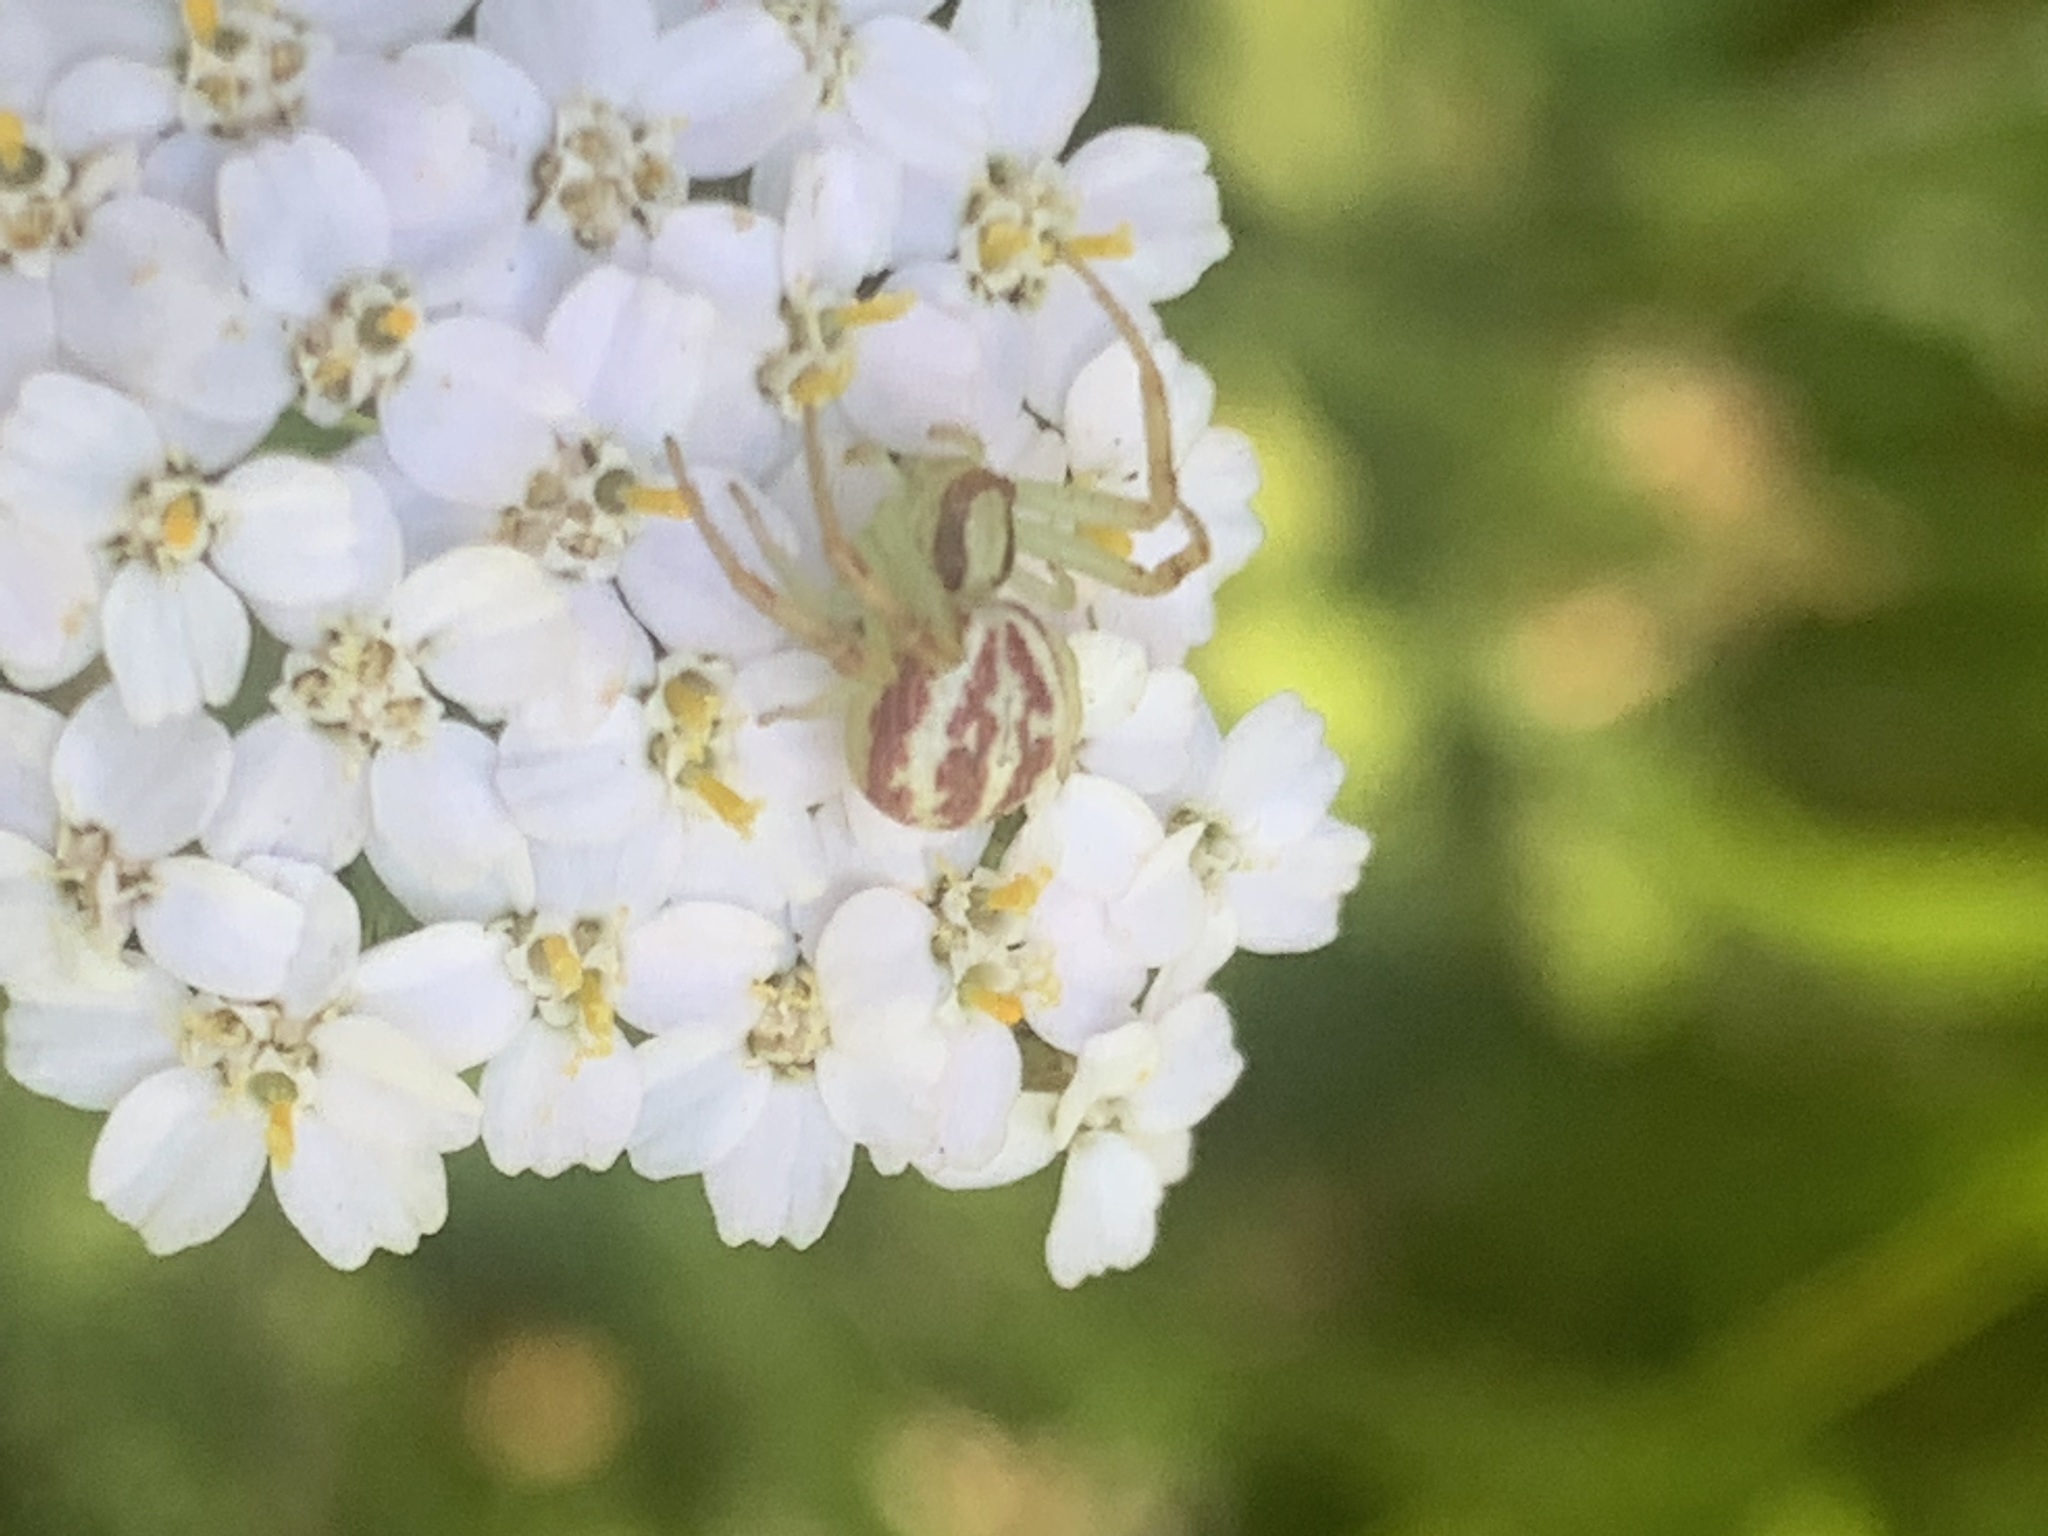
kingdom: Animalia
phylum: Arthropoda
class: Arachnida
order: Araneae
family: Thomisidae
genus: Misumenops
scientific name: Misumenops
